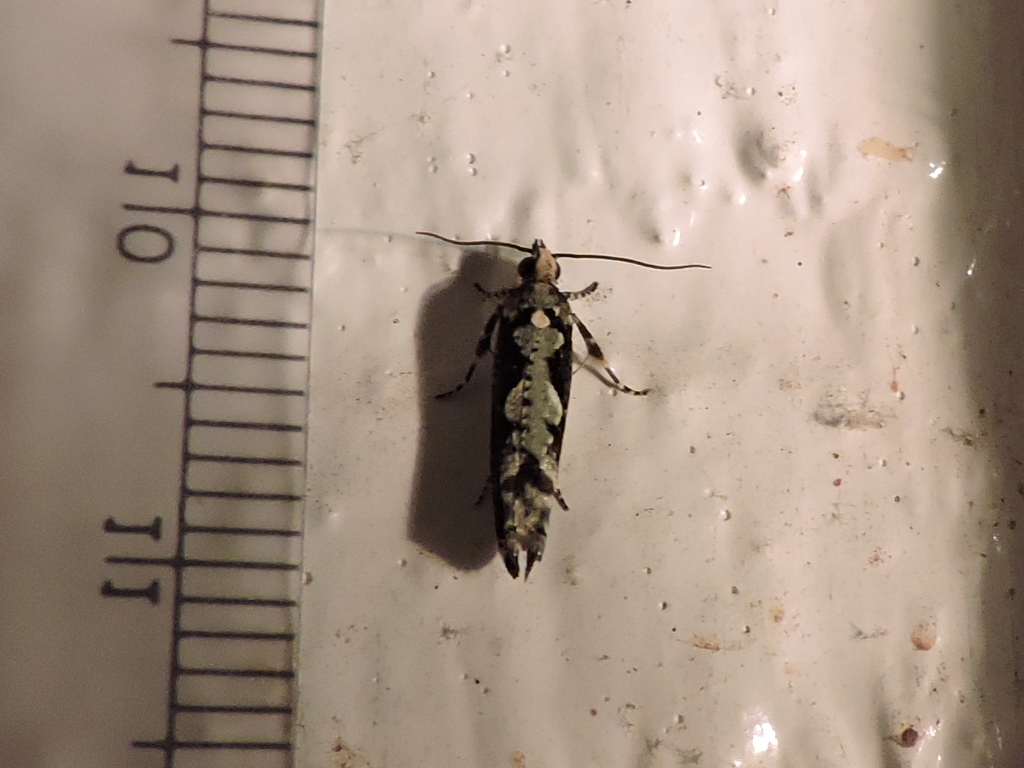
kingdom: Animalia
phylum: Arthropoda
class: Insecta
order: Lepidoptera
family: Tortricidae
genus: Chimoptesis
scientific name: Chimoptesis pennsylvaniana
